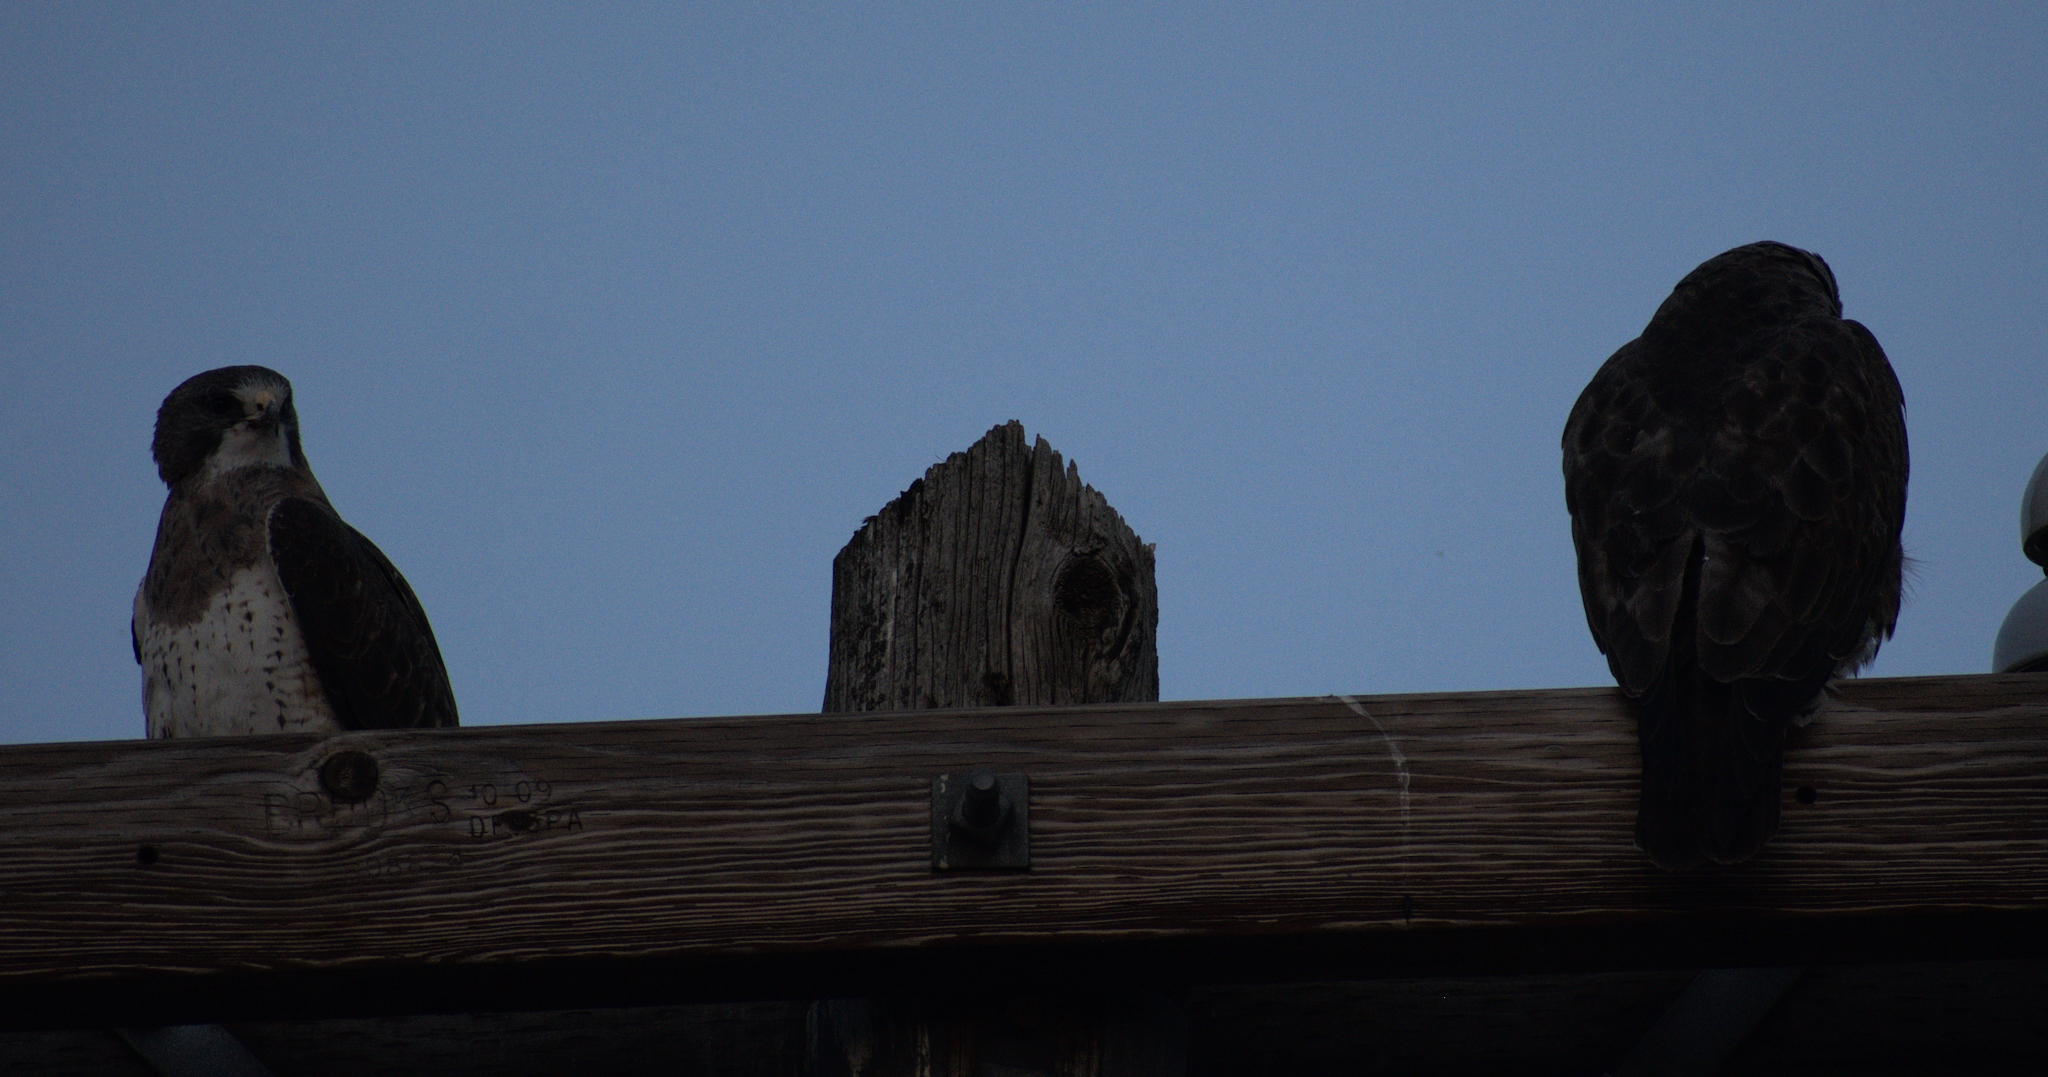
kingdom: Animalia
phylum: Chordata
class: Aves
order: Accipitriformes
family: Accipitridae
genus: Buteo
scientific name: Buteo swainsoni
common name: Swainson's hawk
